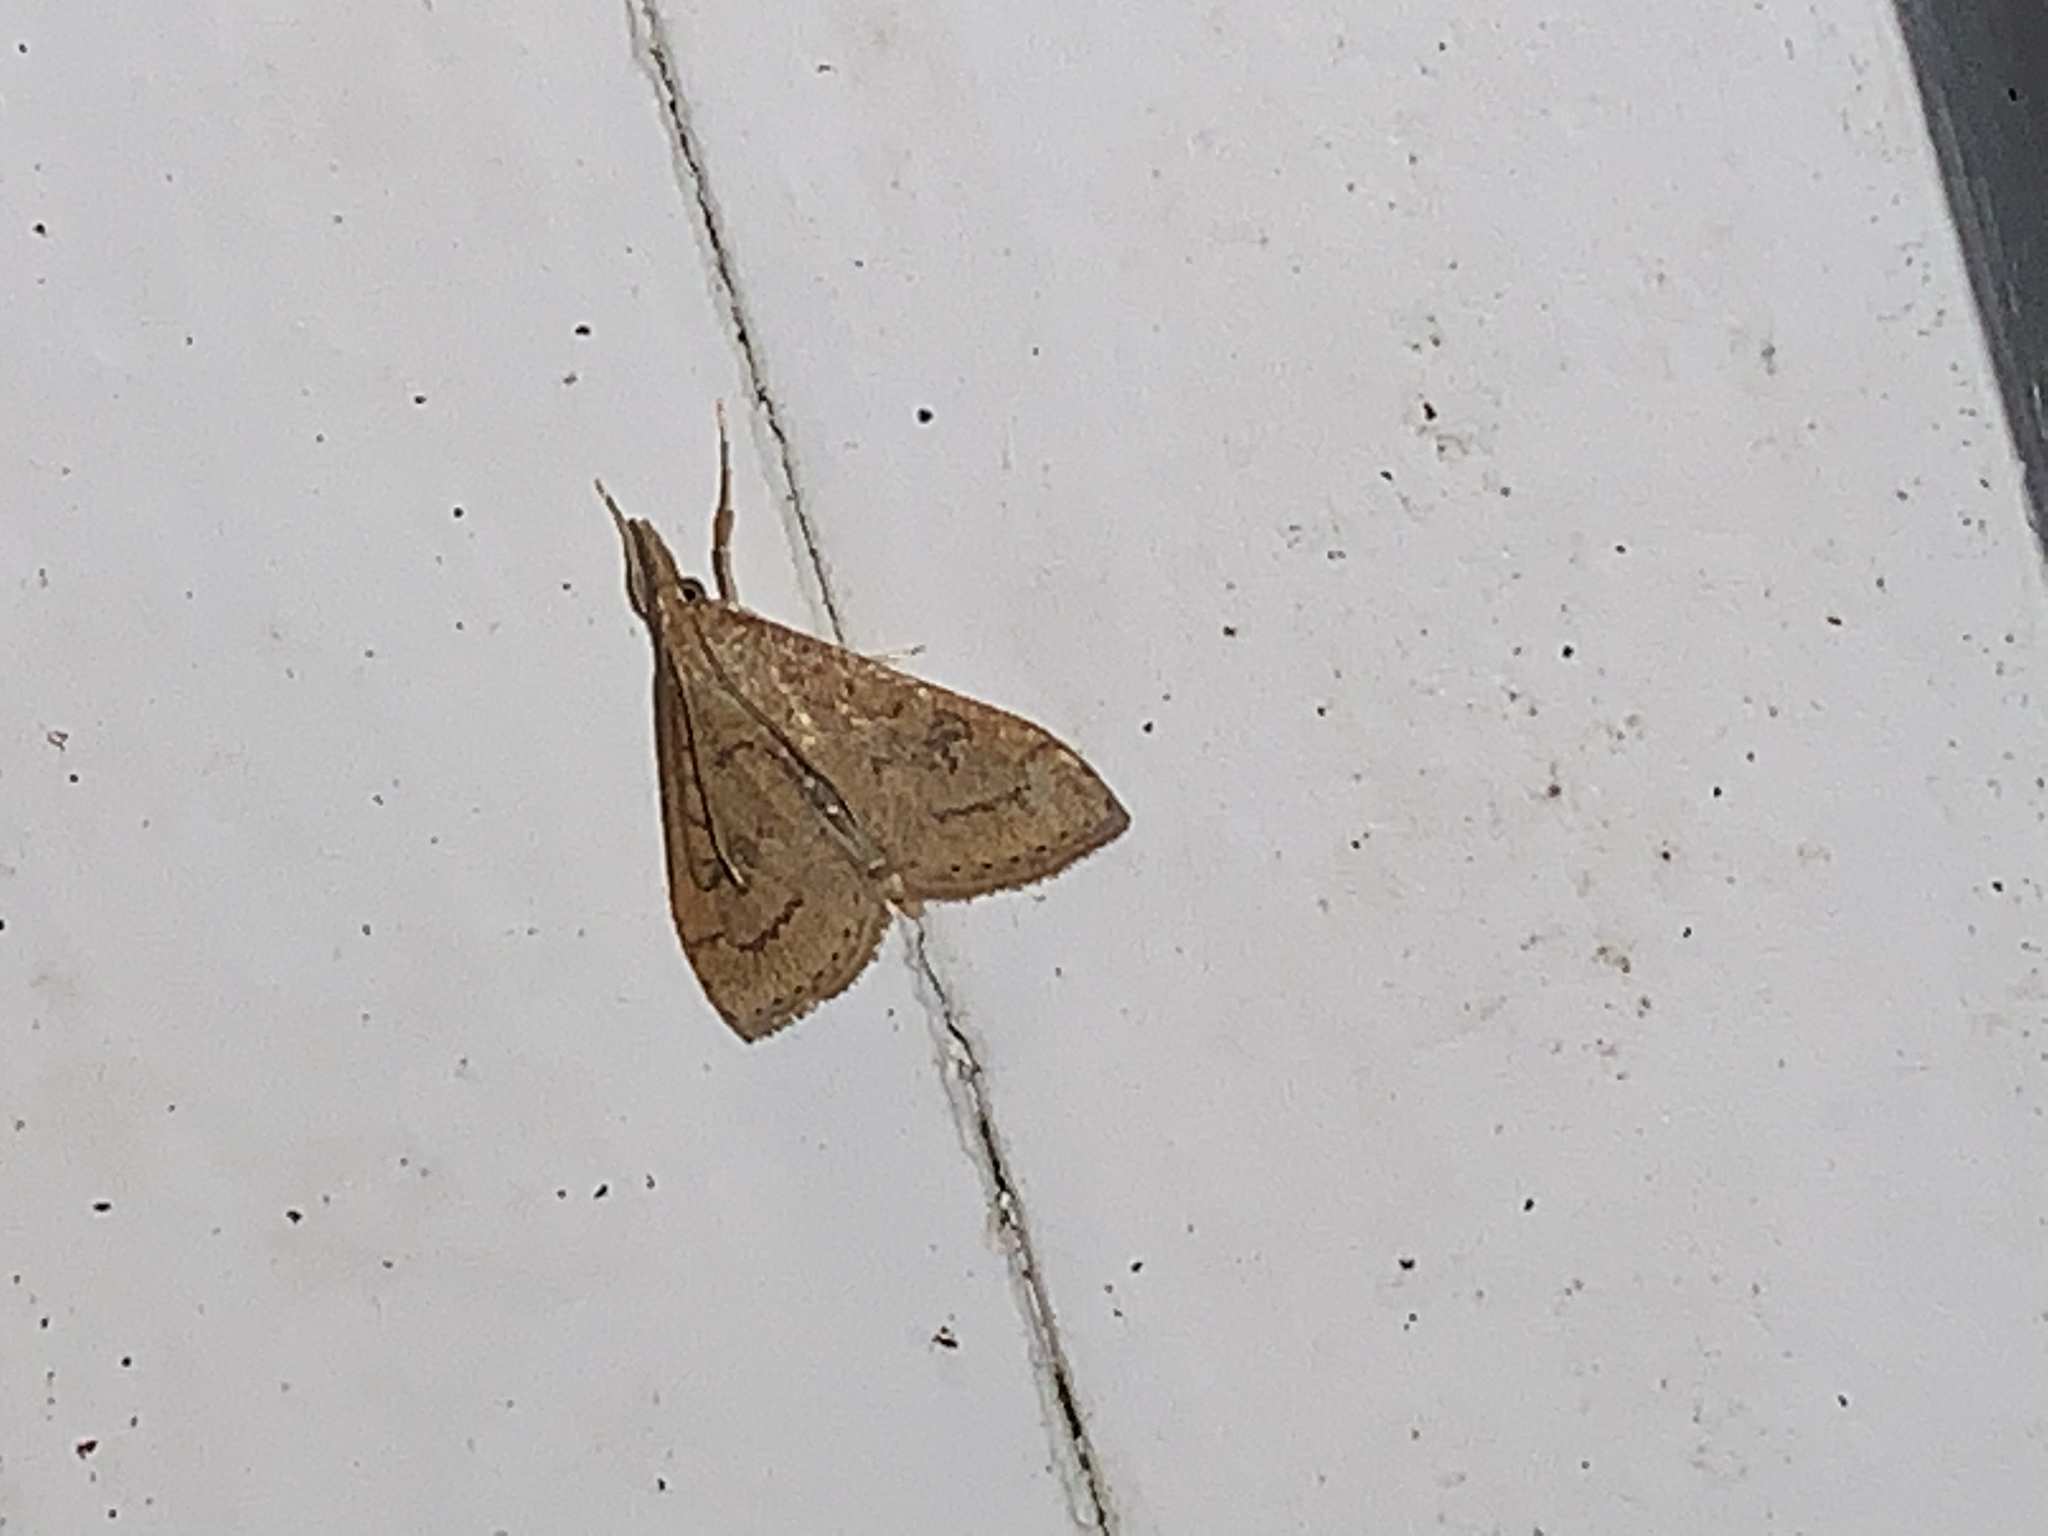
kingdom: Animalia
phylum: Arthropoda
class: Insecta
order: Lepidoptera
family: Crambidae
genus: Udea
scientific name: Udea rubigalis
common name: Celery leaftier moth
